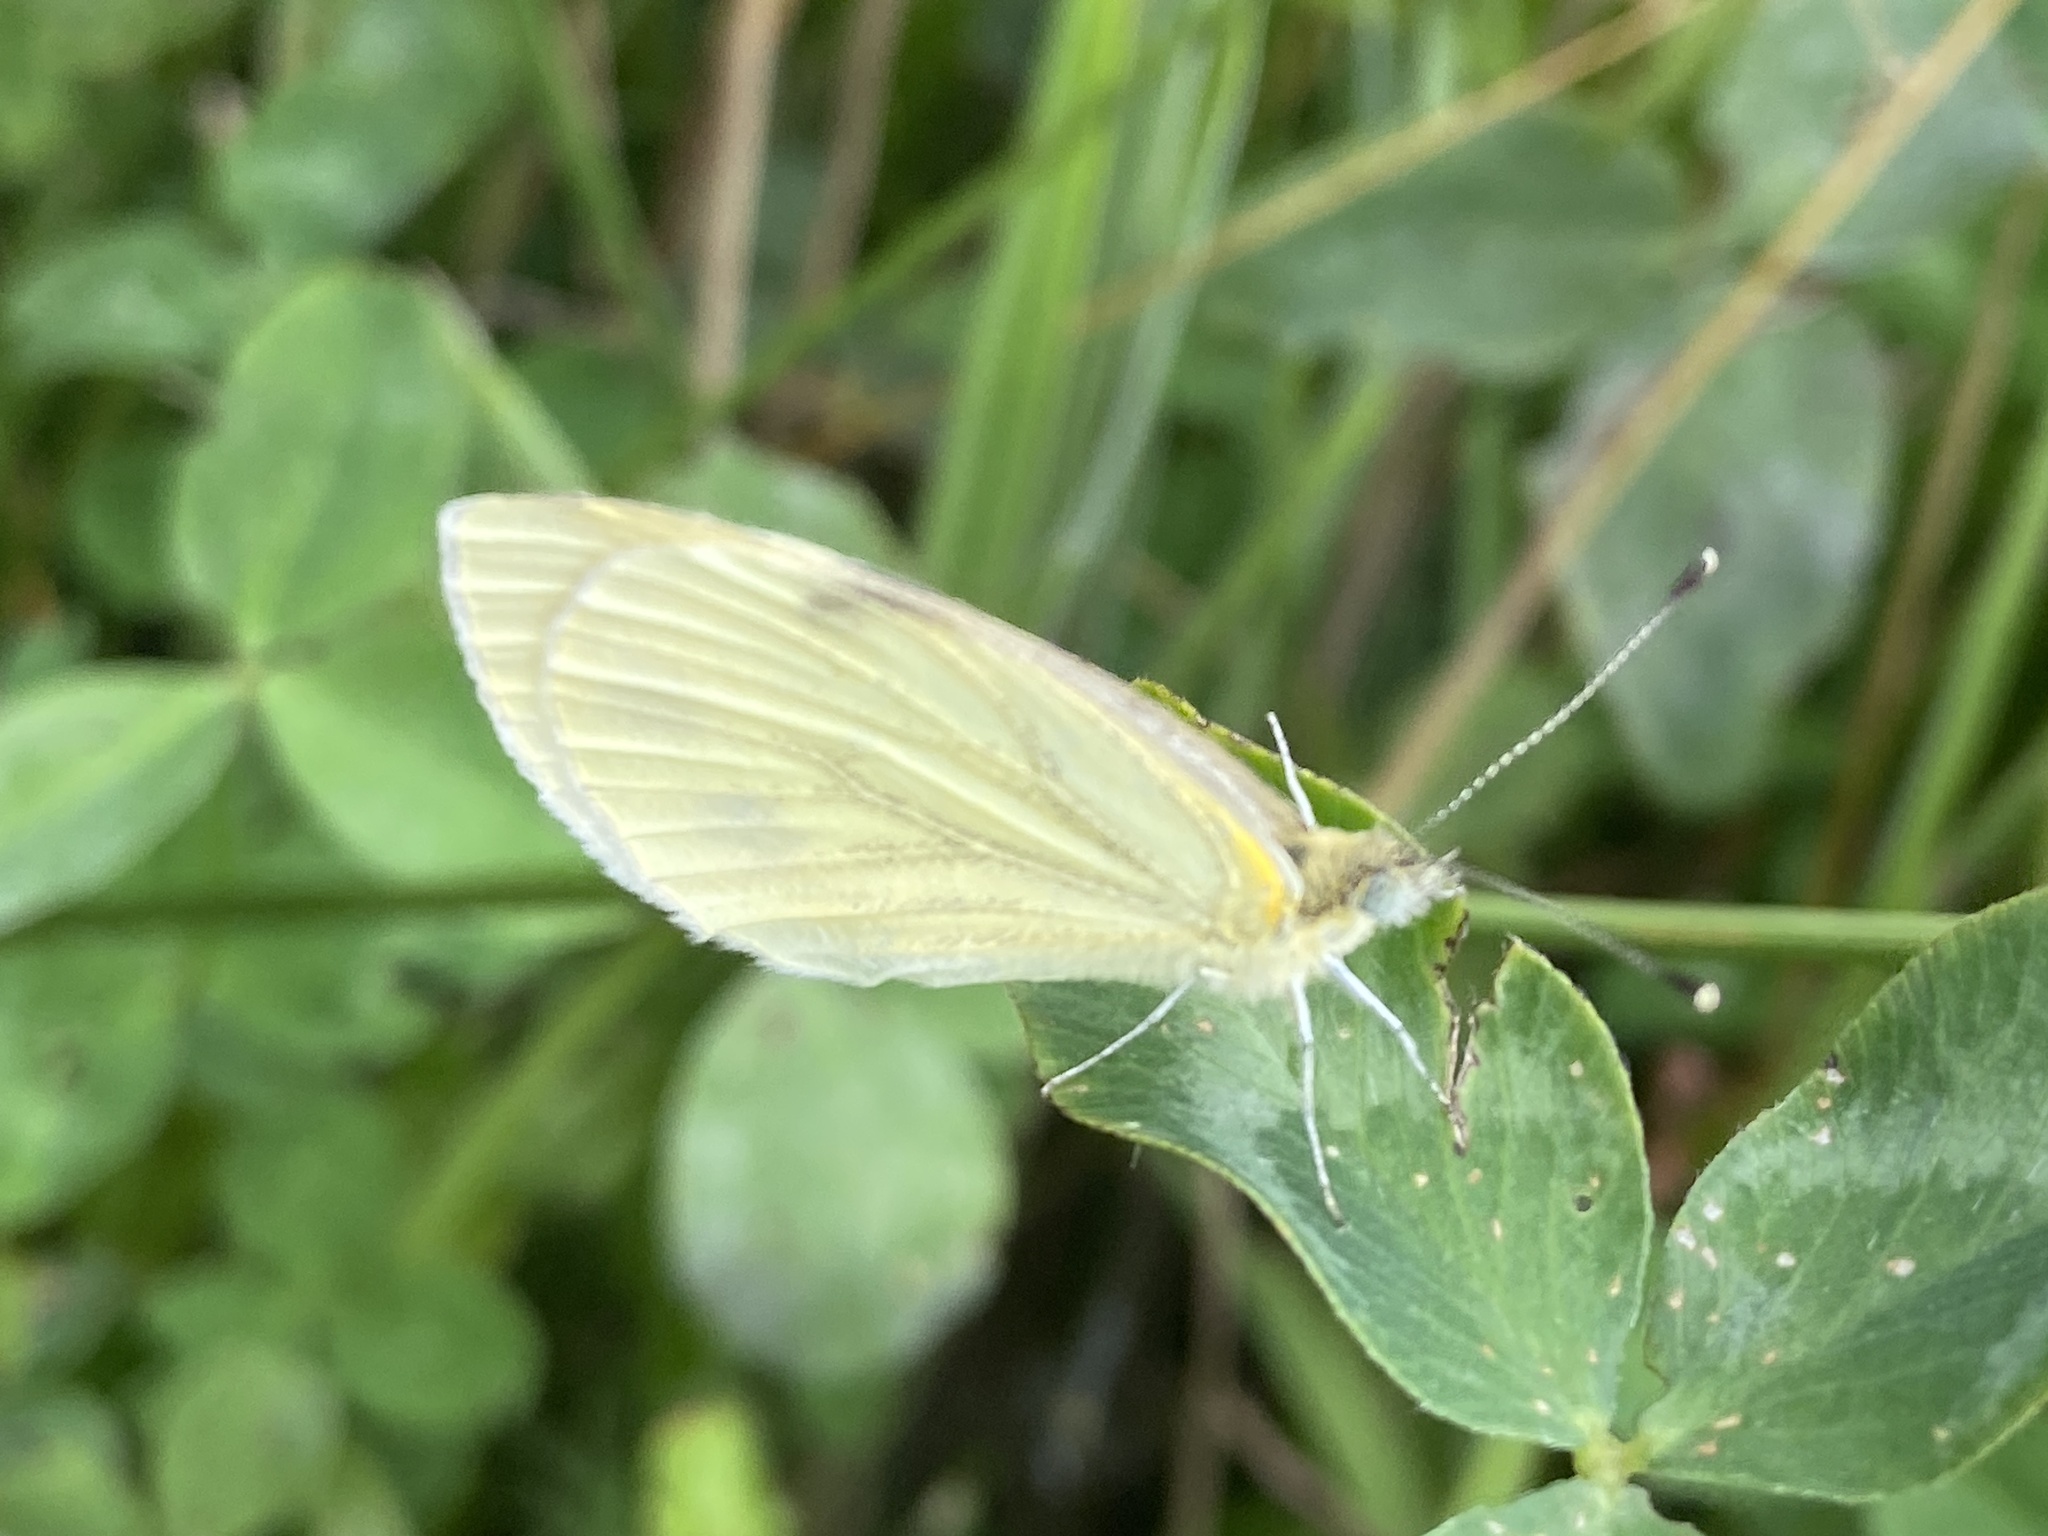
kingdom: Animalia
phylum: Arthropoda
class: Insecta
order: Lepidoptera
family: Pieridae
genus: Pieris
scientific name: Pieris napi
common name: Green-veined white
